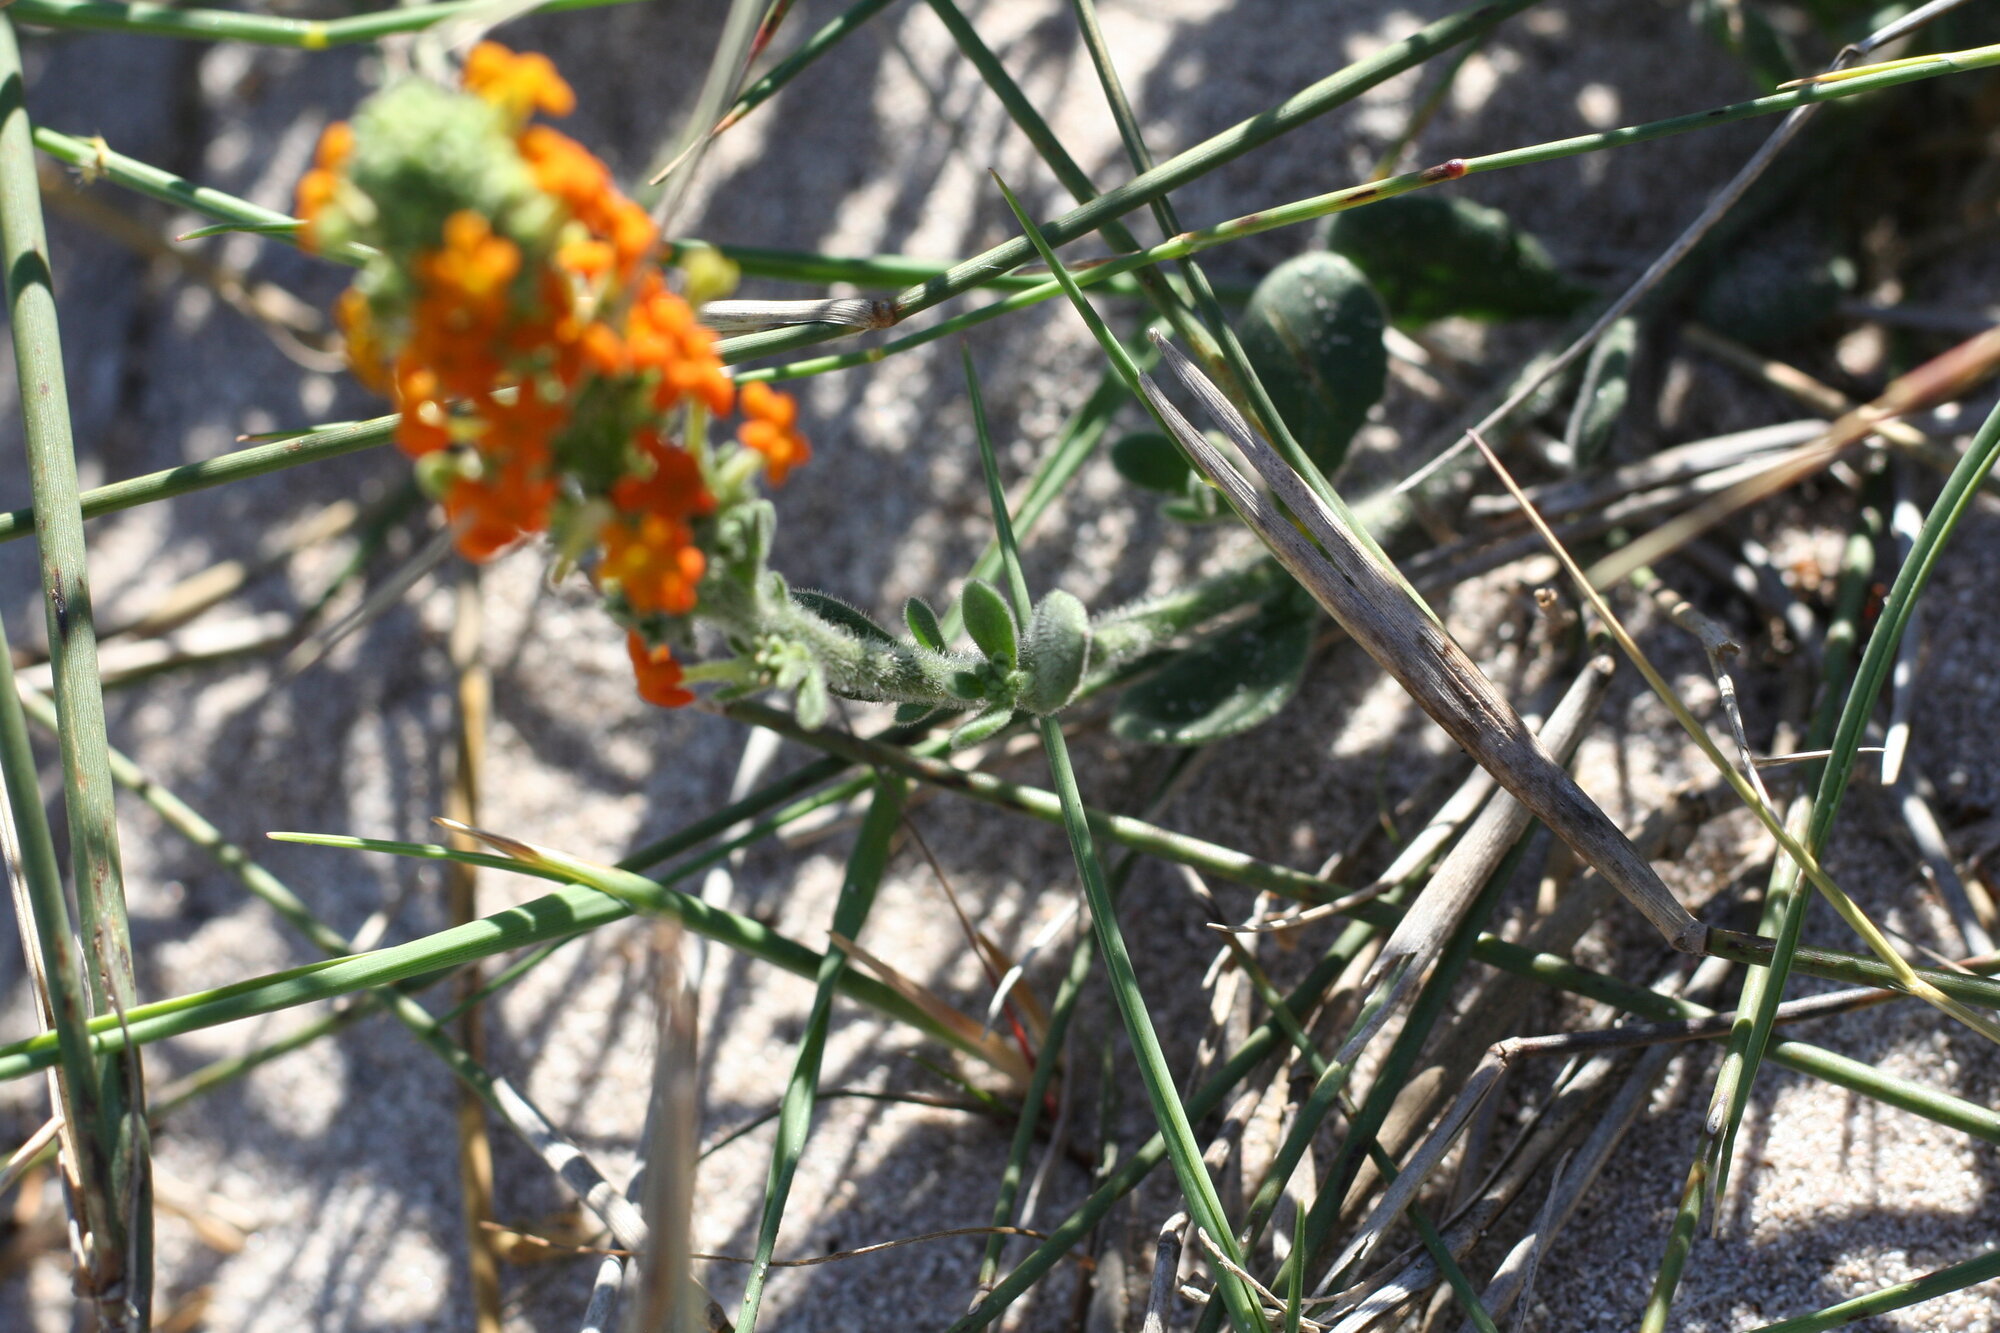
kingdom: Plantae
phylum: Tracheophyta
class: Magnoliopsida
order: Lamiales
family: Scrophulariaceae
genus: Manulea
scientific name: Manulea tomentosa
